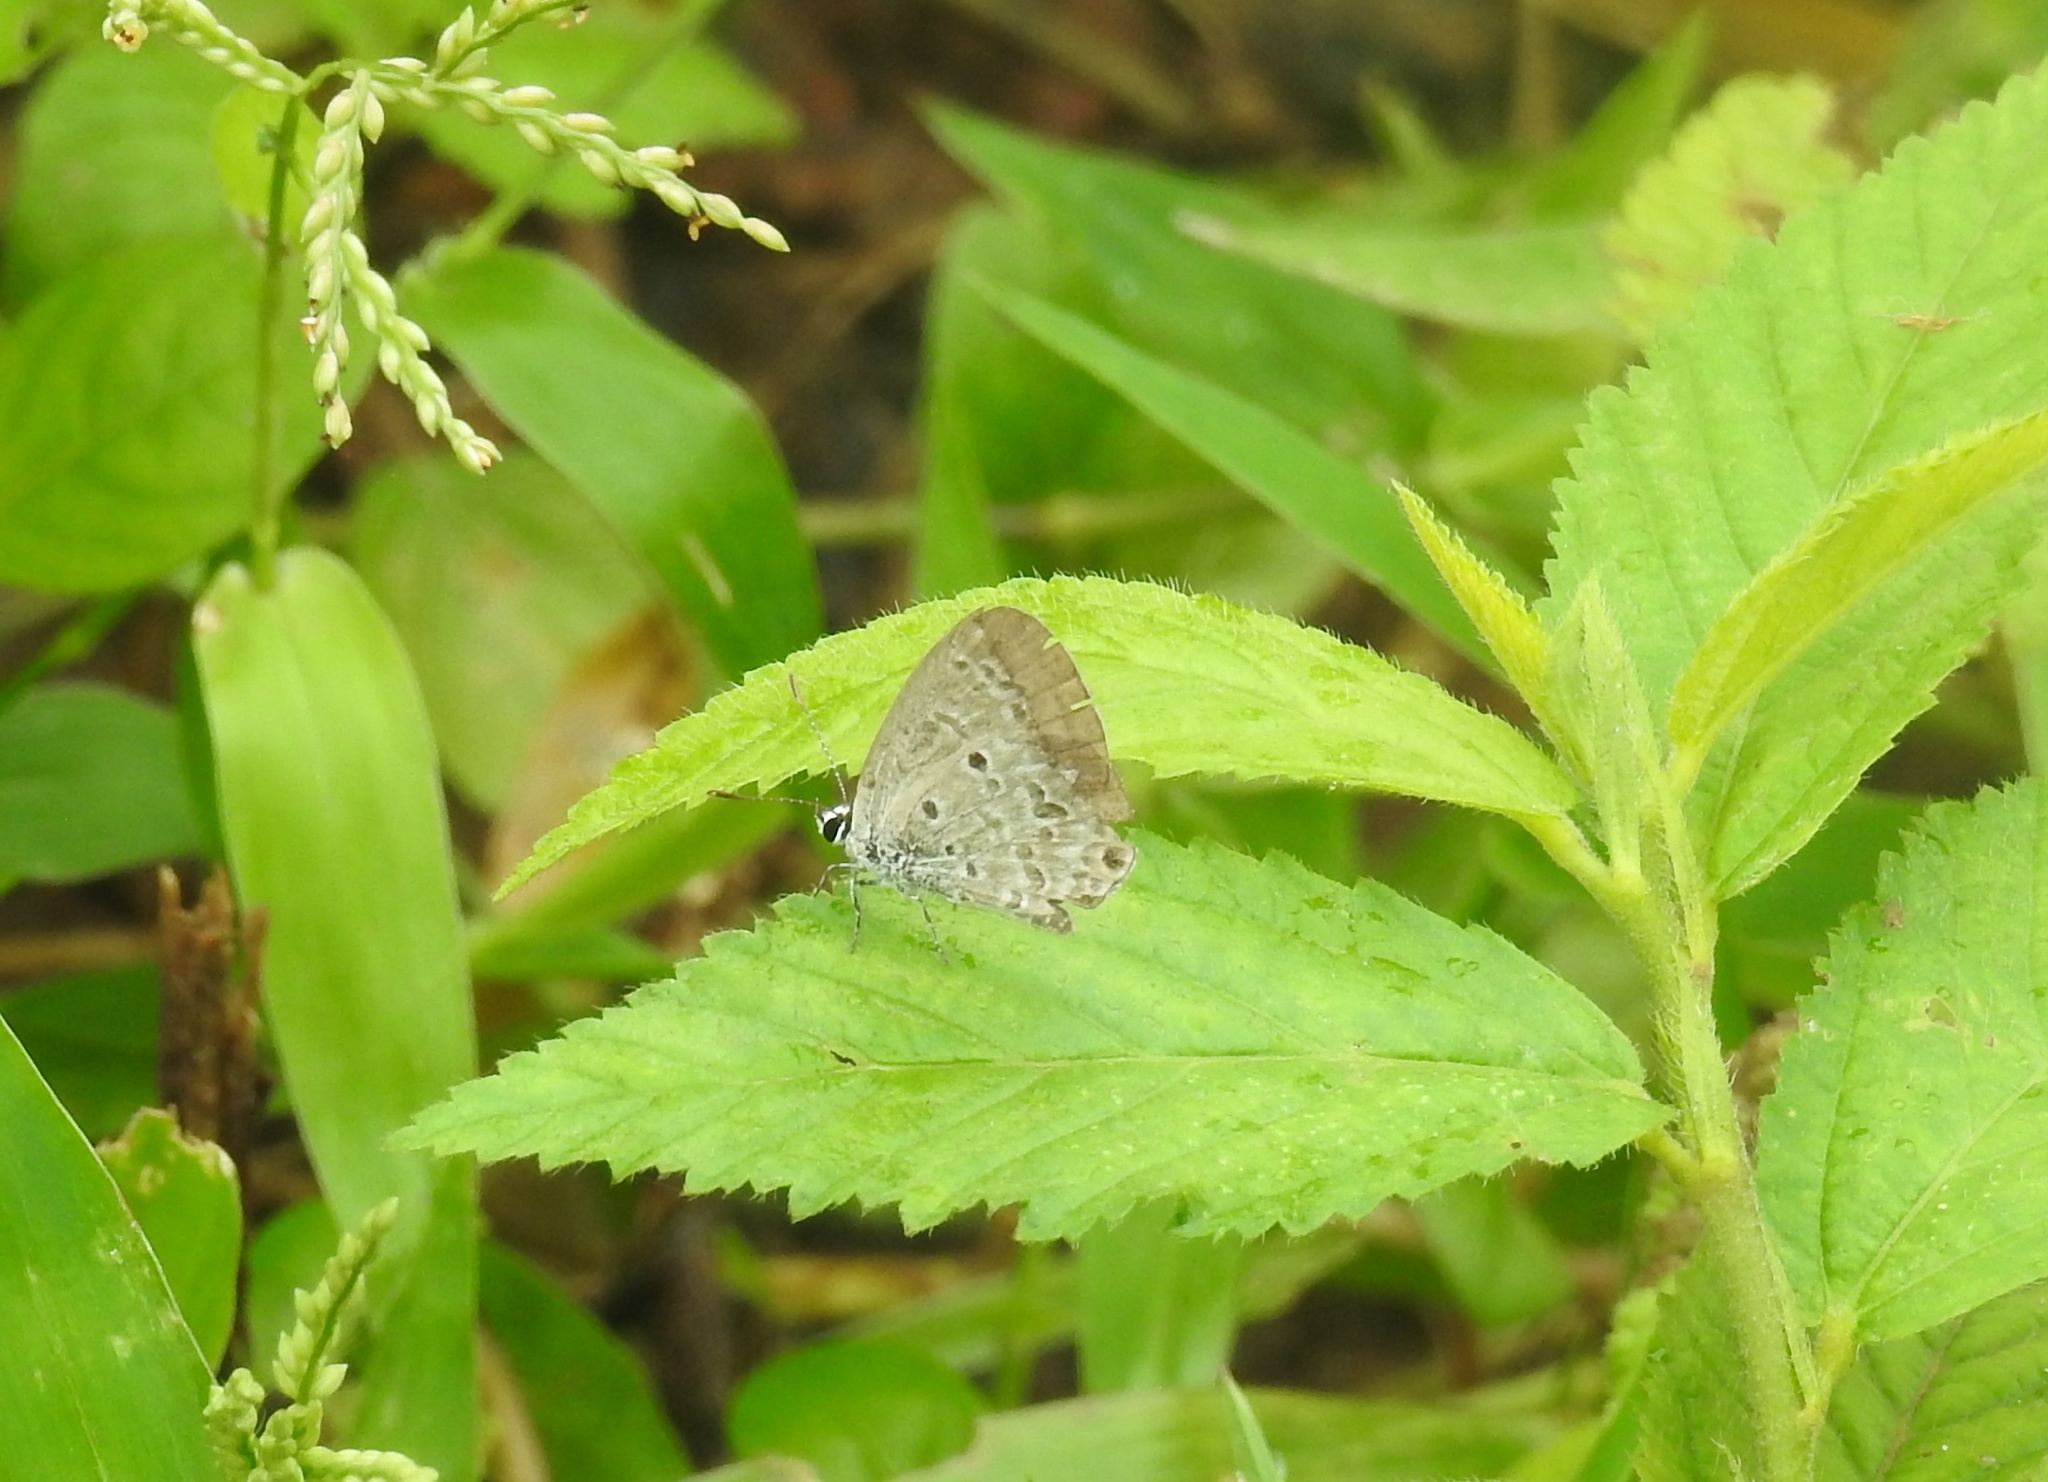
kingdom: Animalia
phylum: Arthropoda
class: Insecta
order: Lepidoptera
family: Lycaenidae
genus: Chilades
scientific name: Chilades laius
